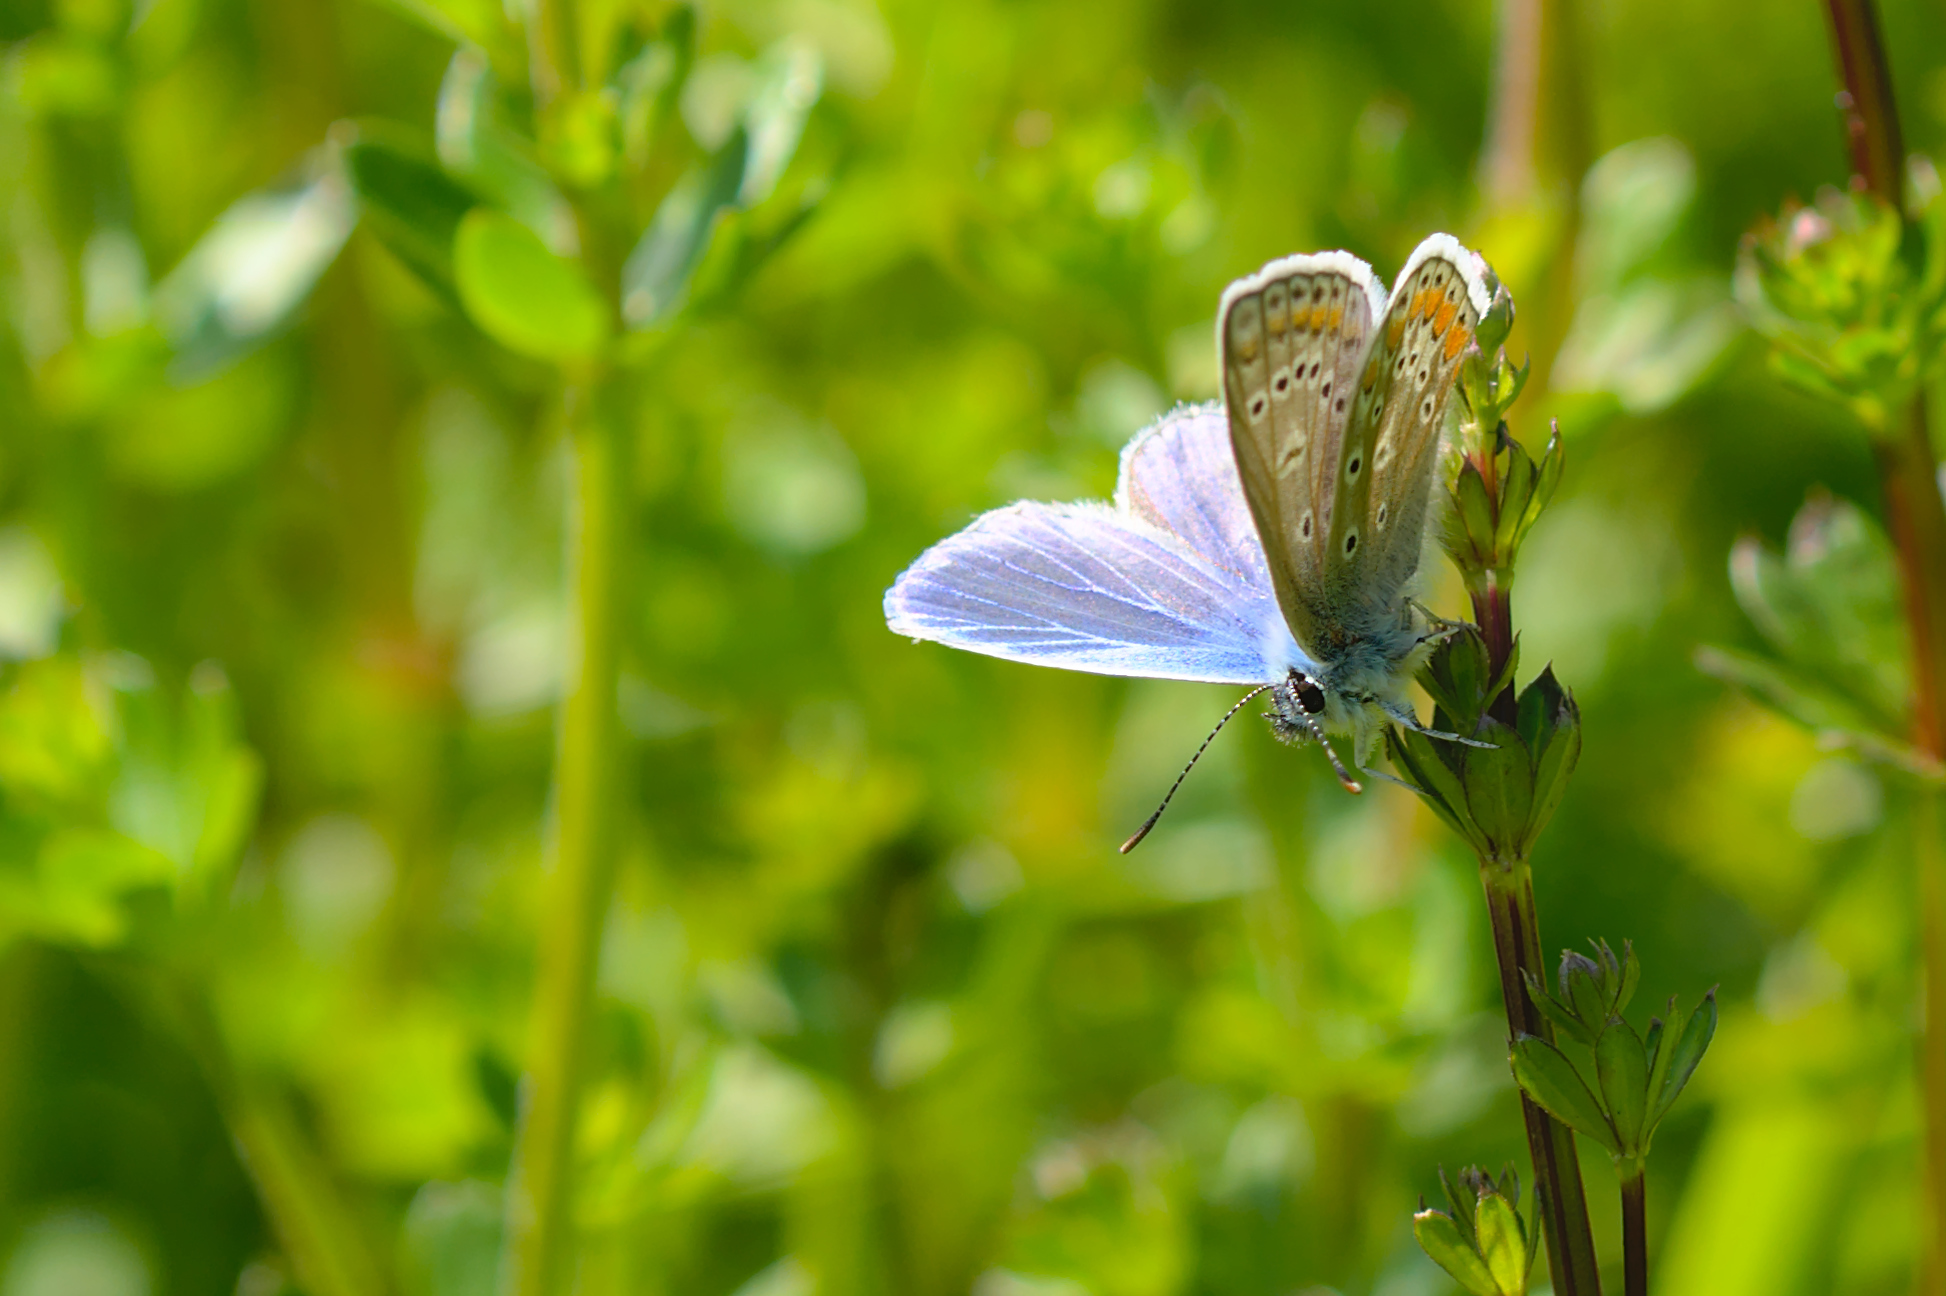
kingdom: Animalia
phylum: Arthropoda
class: Insecta
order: Lepidoptera
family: Lycaenidae
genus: Polyommatus
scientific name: Polyommatus icarus
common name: Common blue
